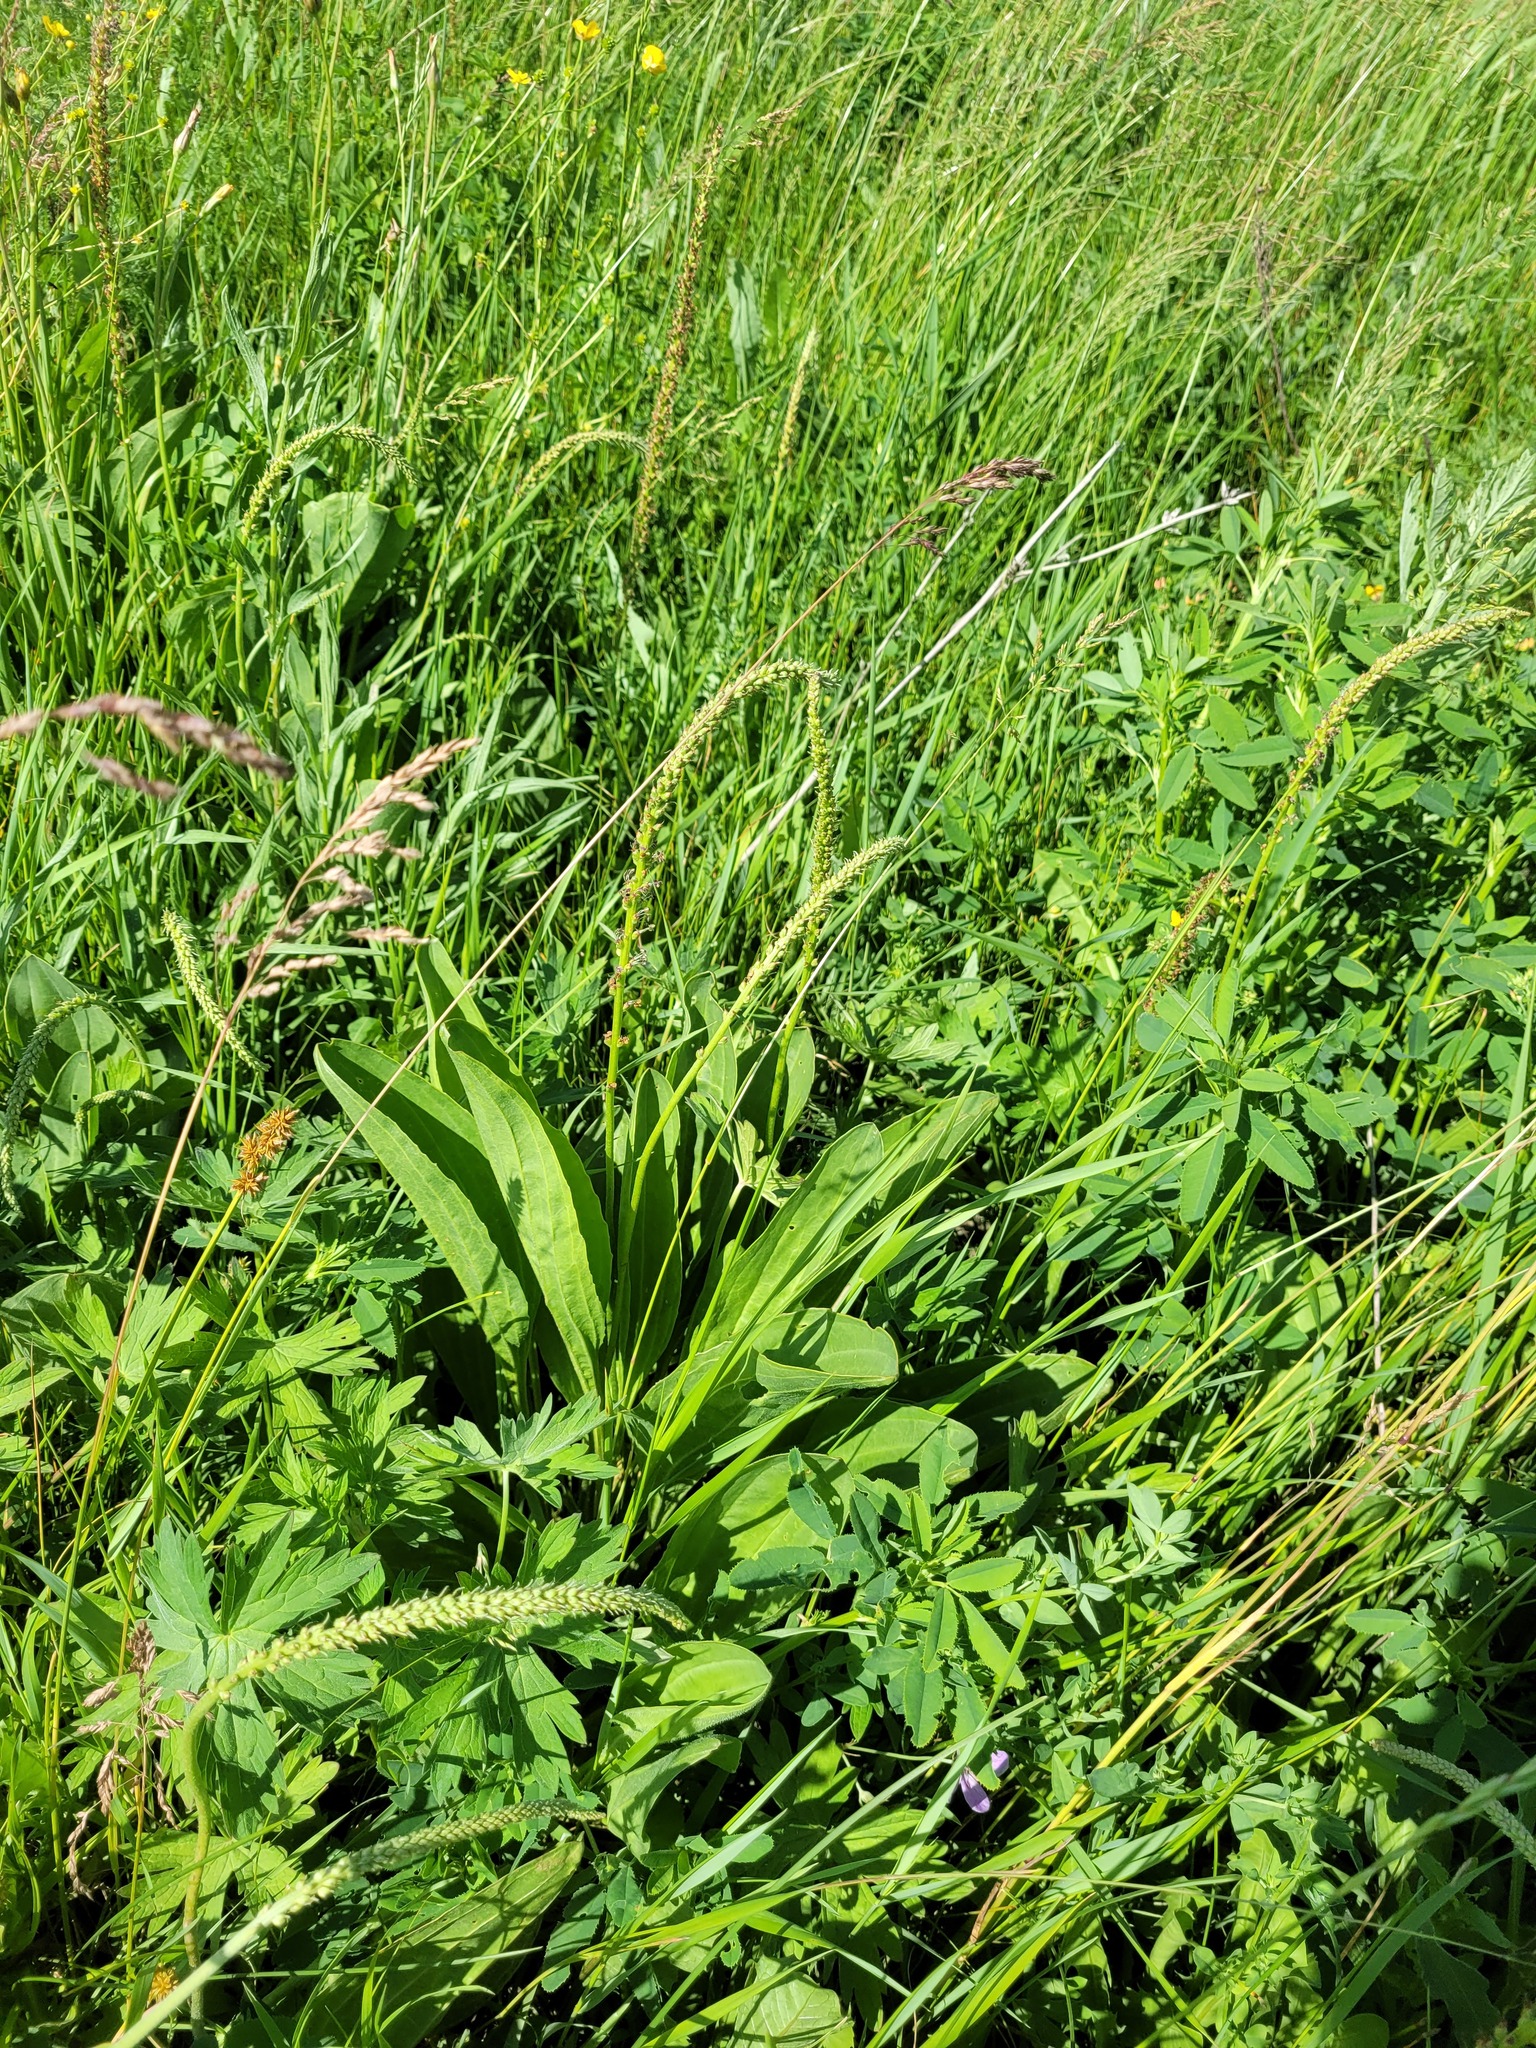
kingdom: Plantae
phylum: Tracheophyta
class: Magnoliopsida
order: Lamiales
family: Plantaginaceae
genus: Plantago
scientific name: Plantago cornuti
